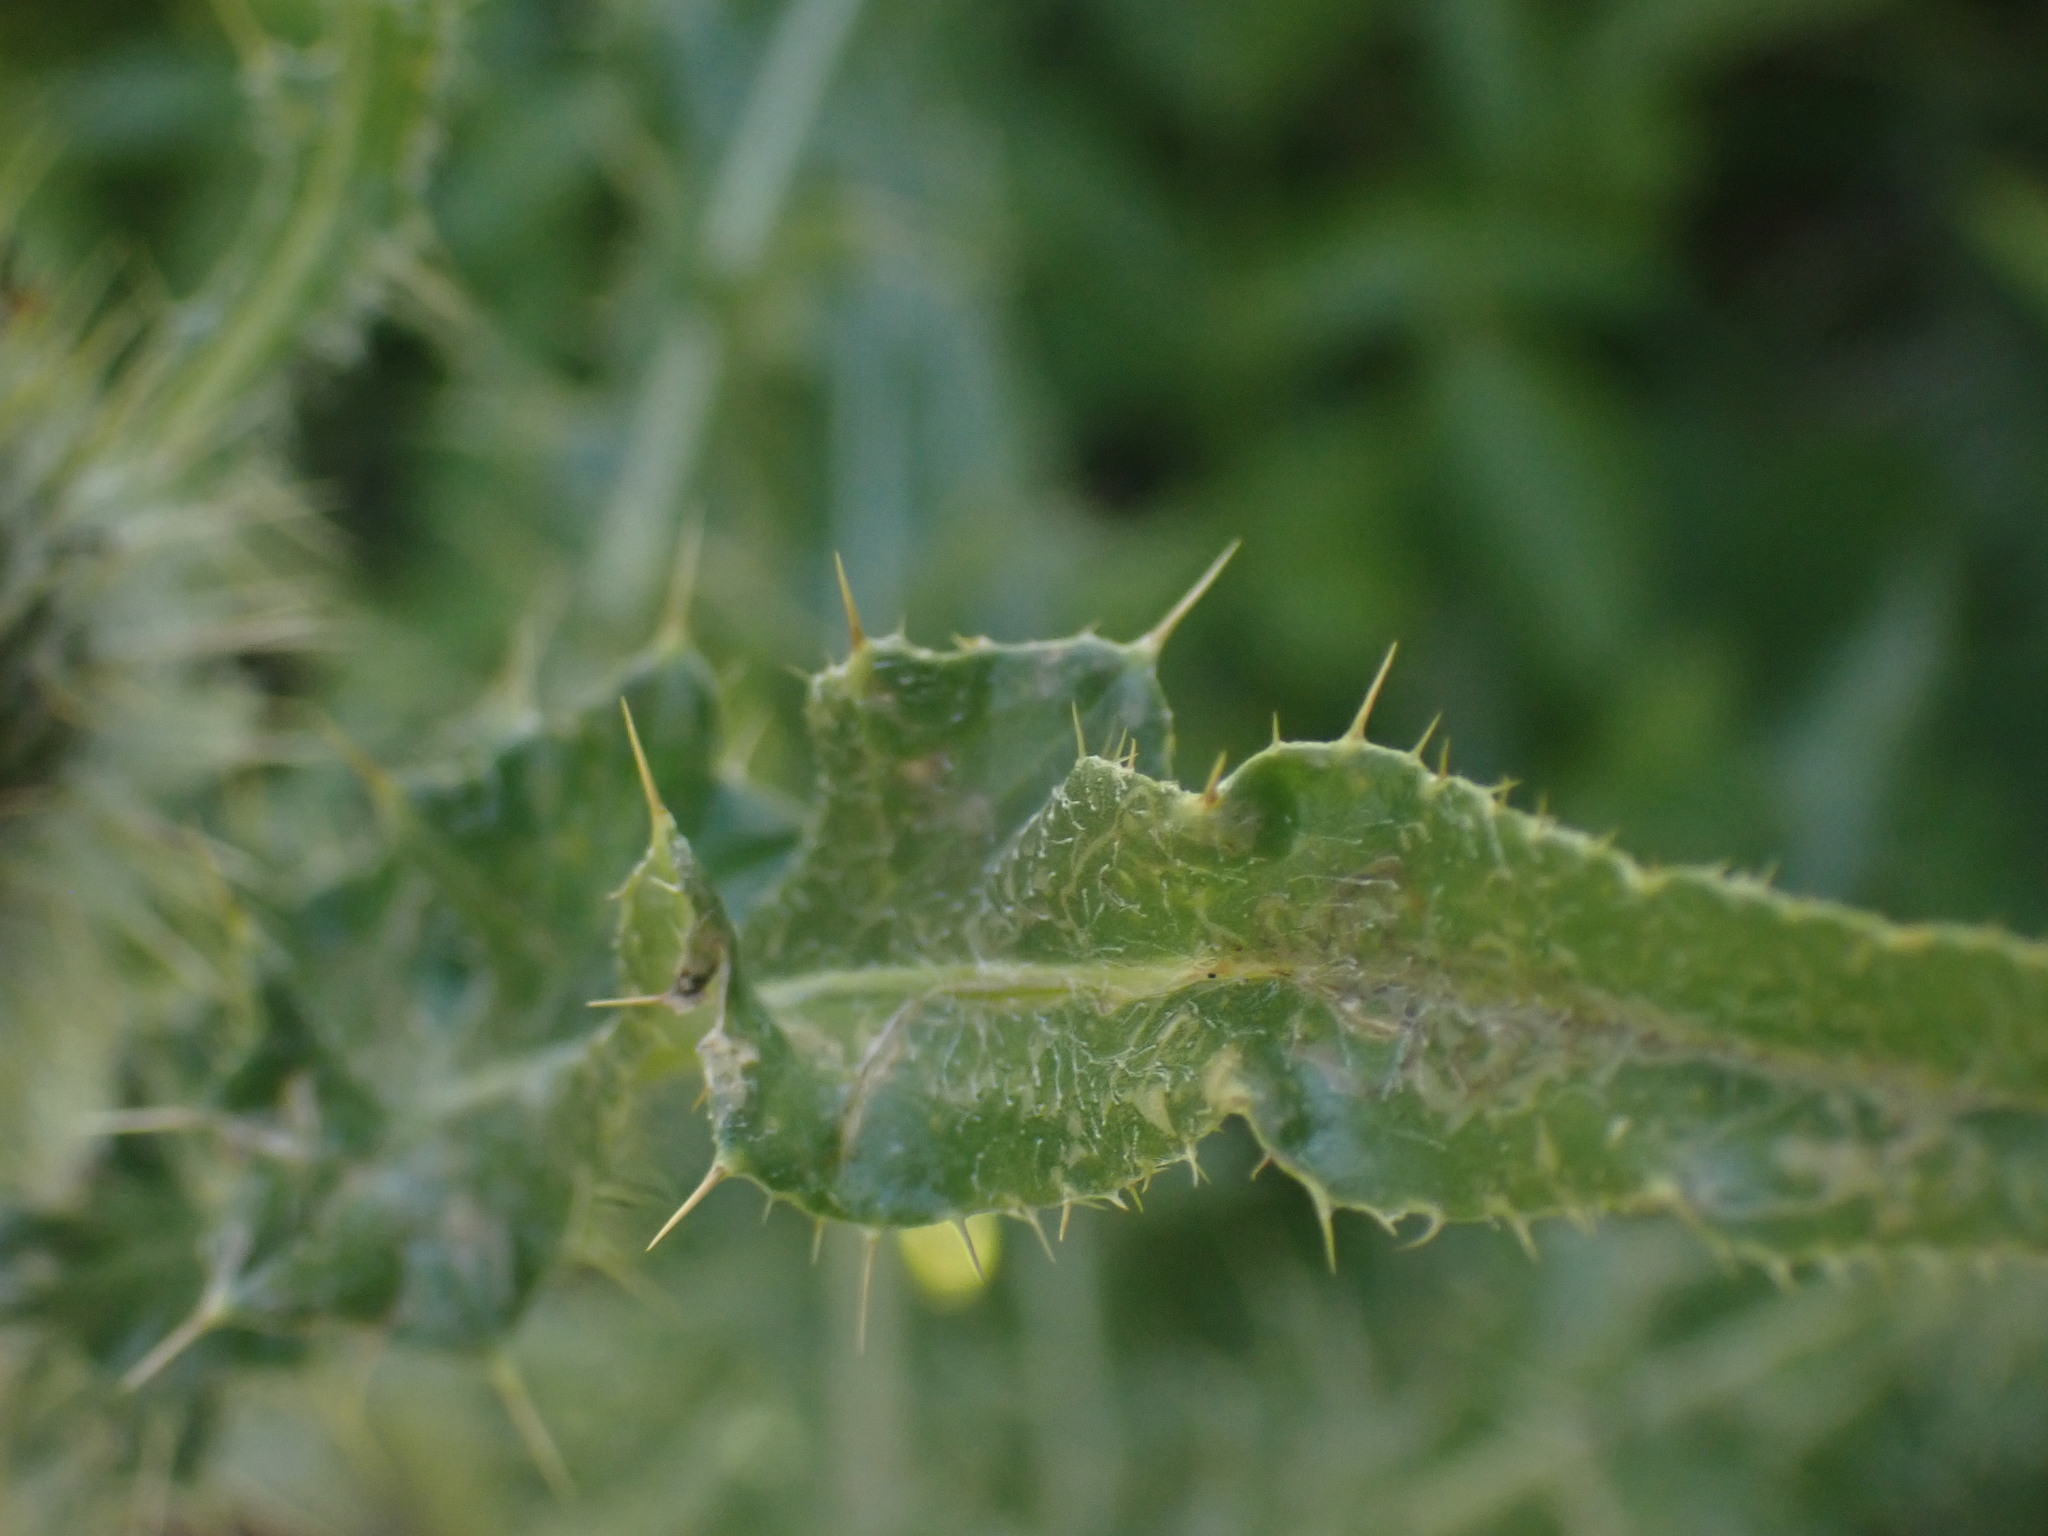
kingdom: Plantae
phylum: Tracheophyta
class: Magnoliopsida
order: Asterales
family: Asteraceae
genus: Cirsium
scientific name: Cirsium hookerianum
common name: Hooker's thistle
